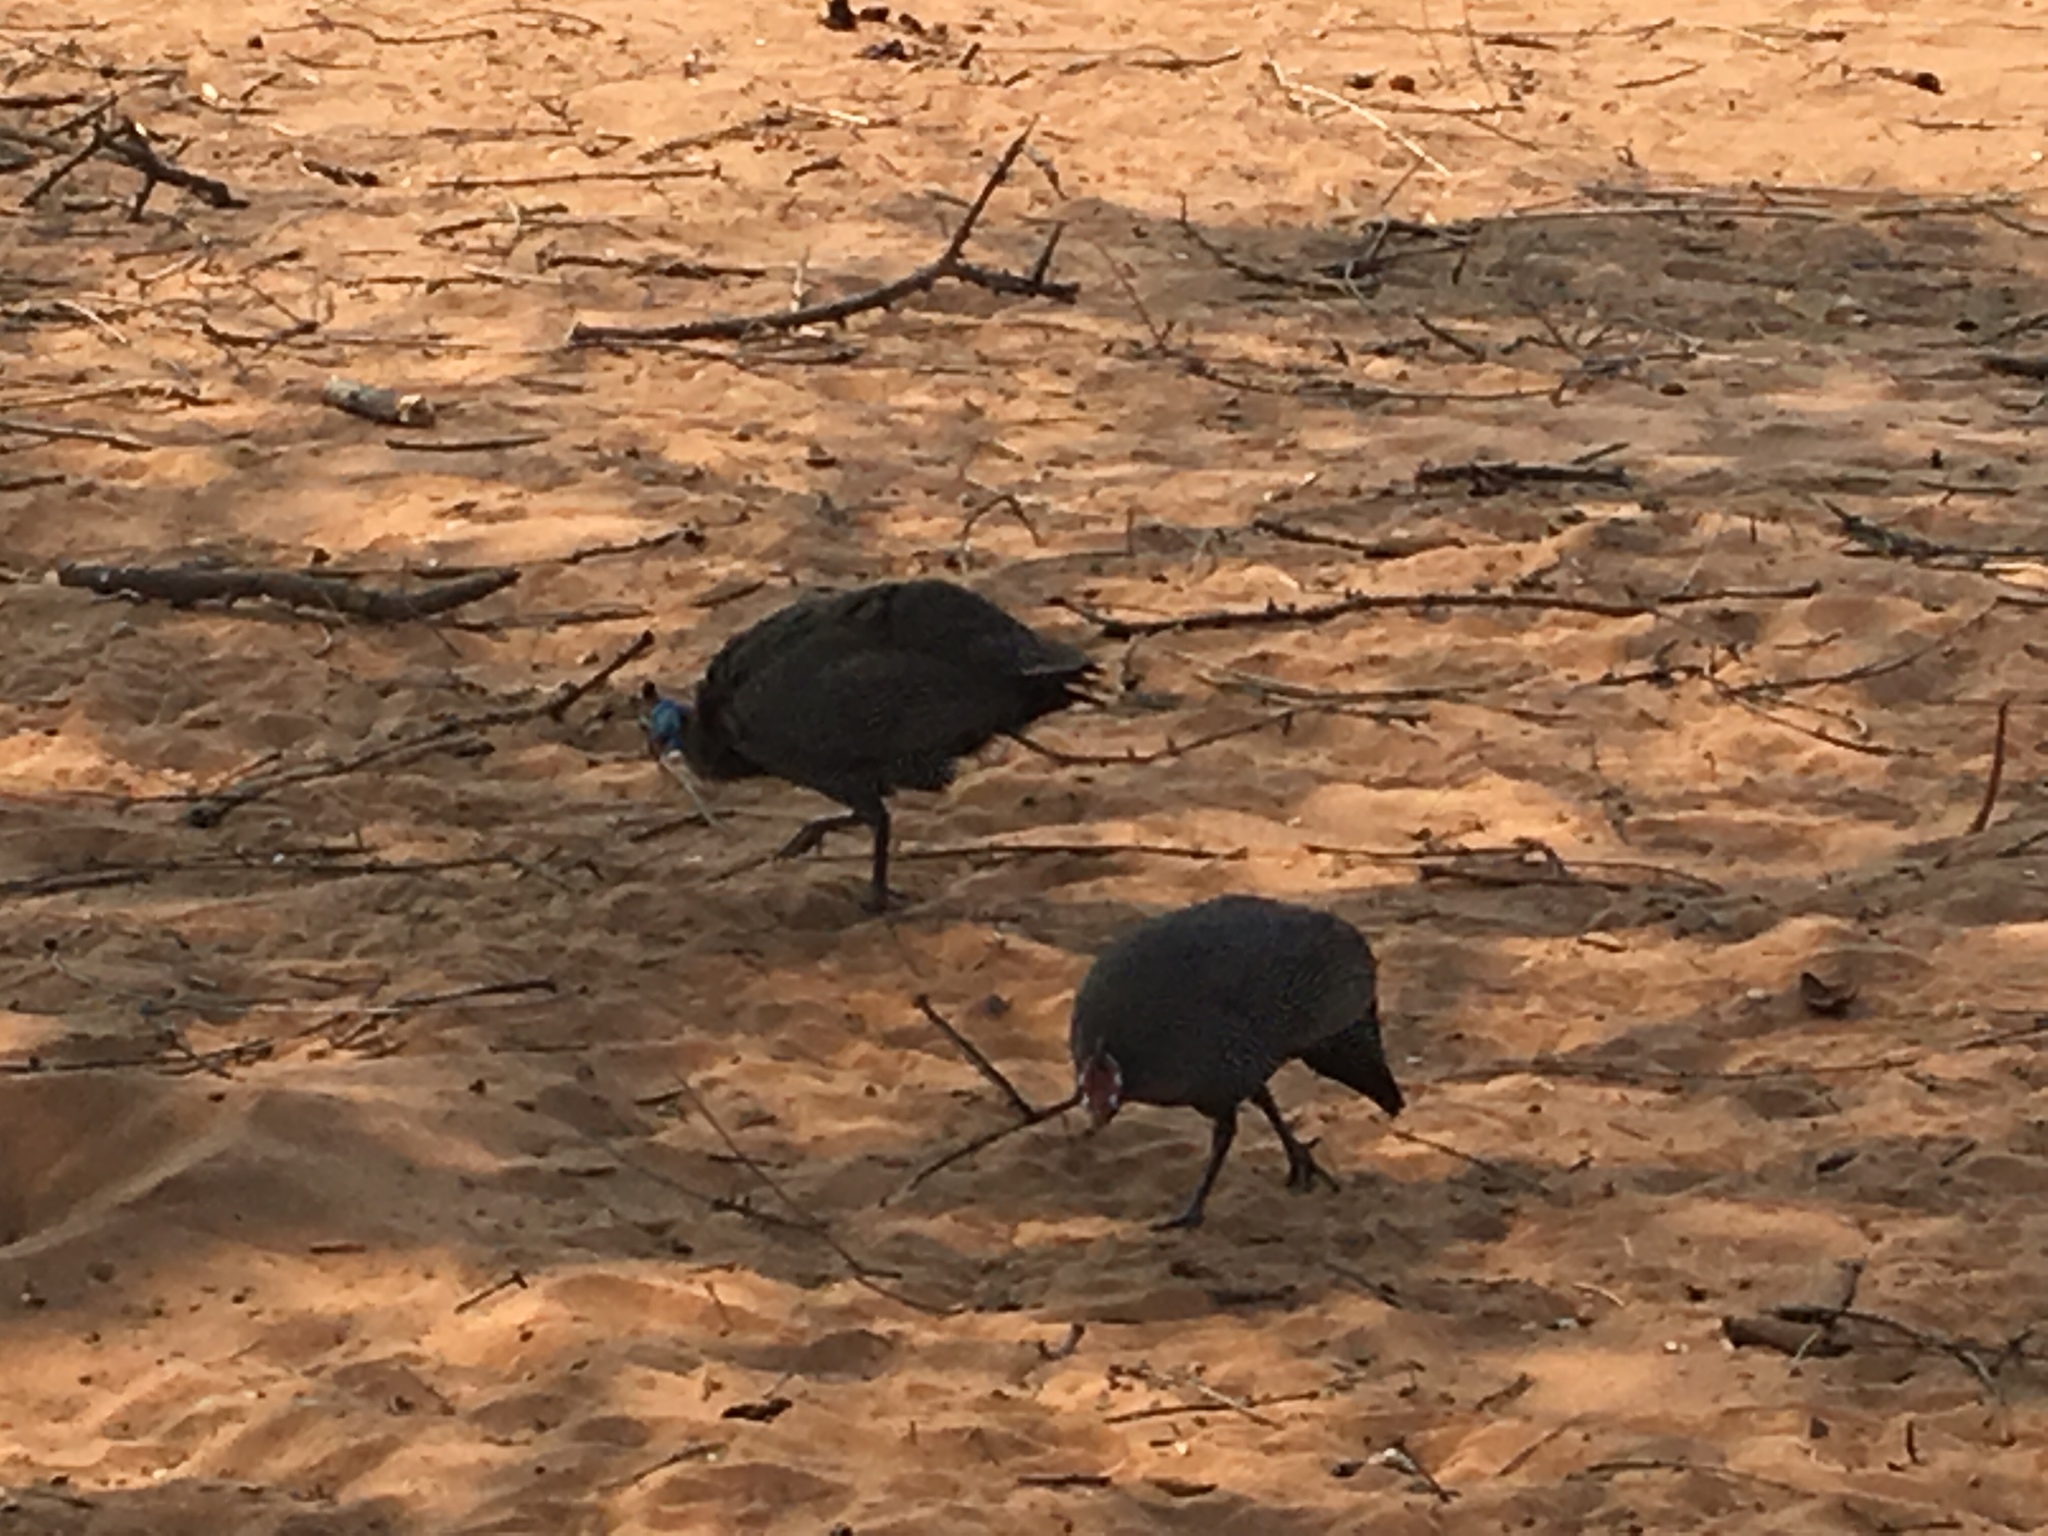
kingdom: Animalia
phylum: Chordata
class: Aves
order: Galliformes
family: Numididae
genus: Numida
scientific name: Numida meleagris
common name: Helmeted guineafowl
